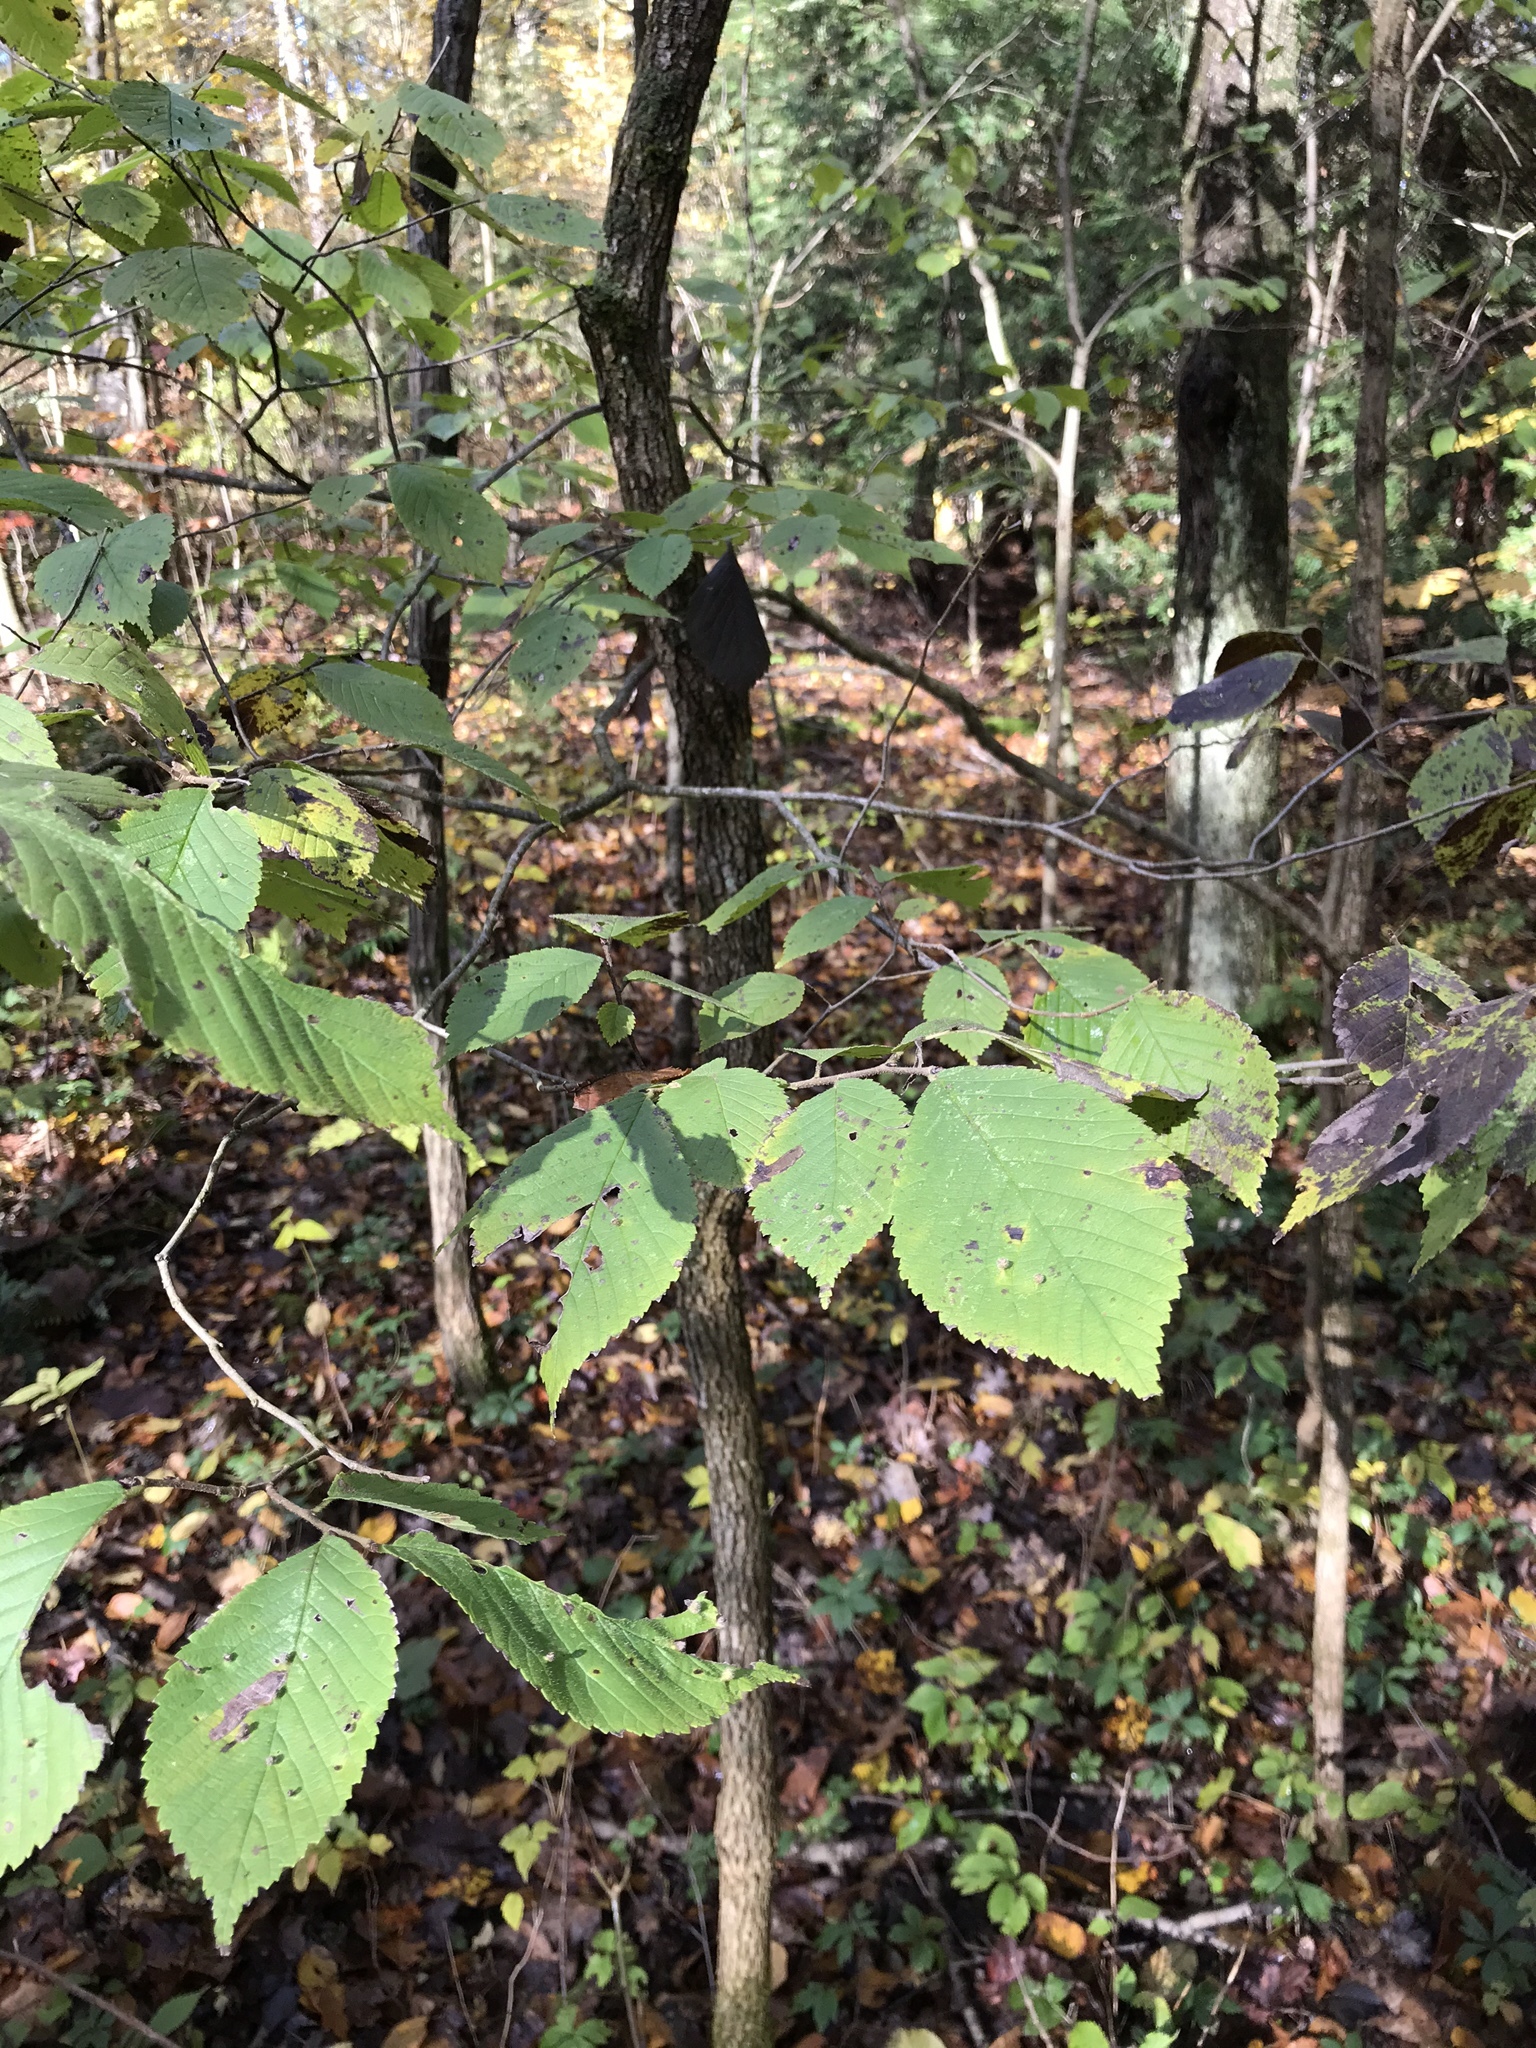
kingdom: Plantae
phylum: Tracheophyta
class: Magnoliopsida
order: Rosales
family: Ulmaceae
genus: Ulmus
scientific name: Ulmus rubra
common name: Slippery elm
